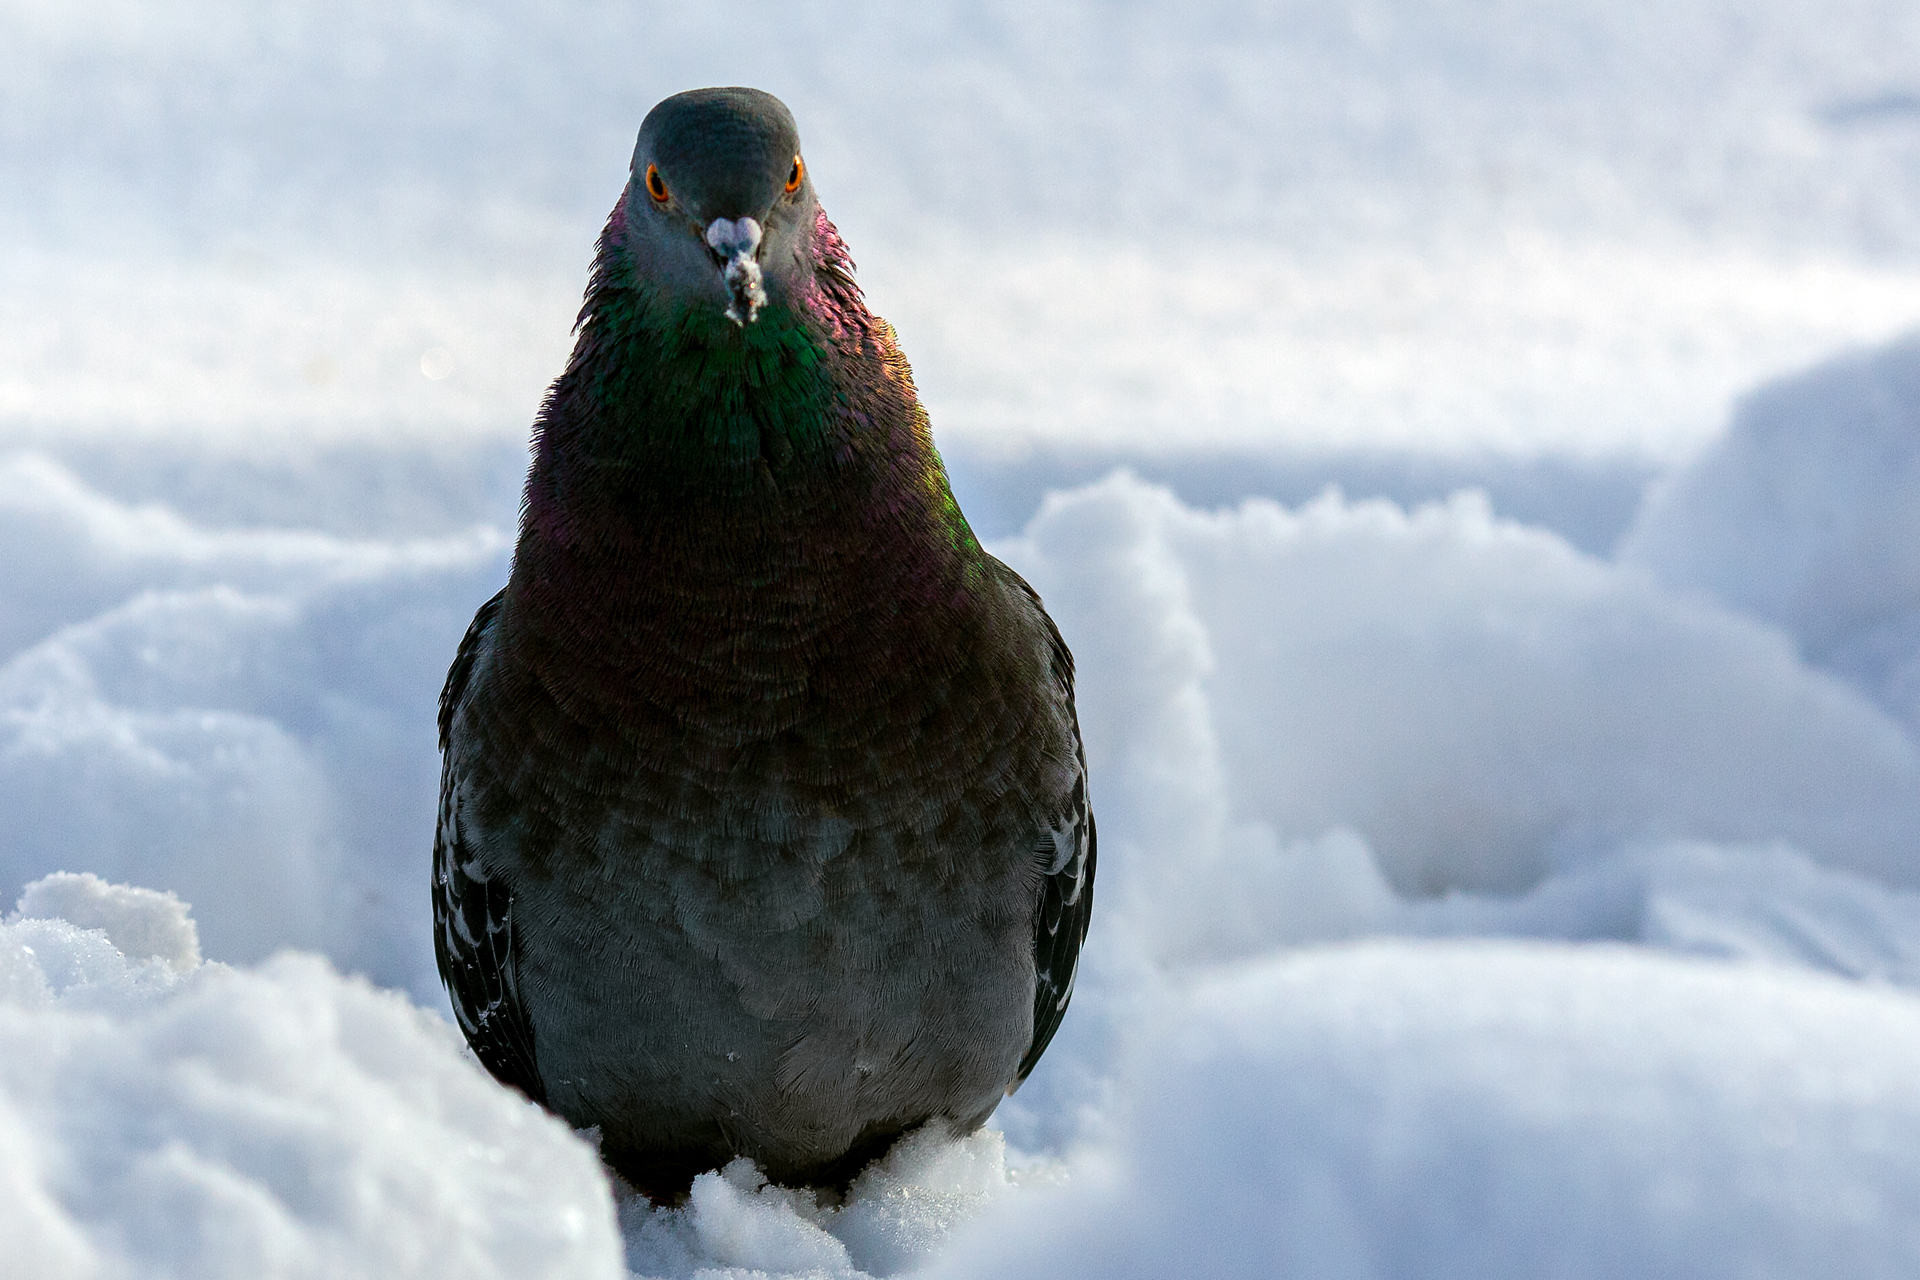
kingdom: Animalia
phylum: Chordata
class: Aves
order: Columbiformes
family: Columbidae
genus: Columba
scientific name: Columba livia
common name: Rock pigeon
